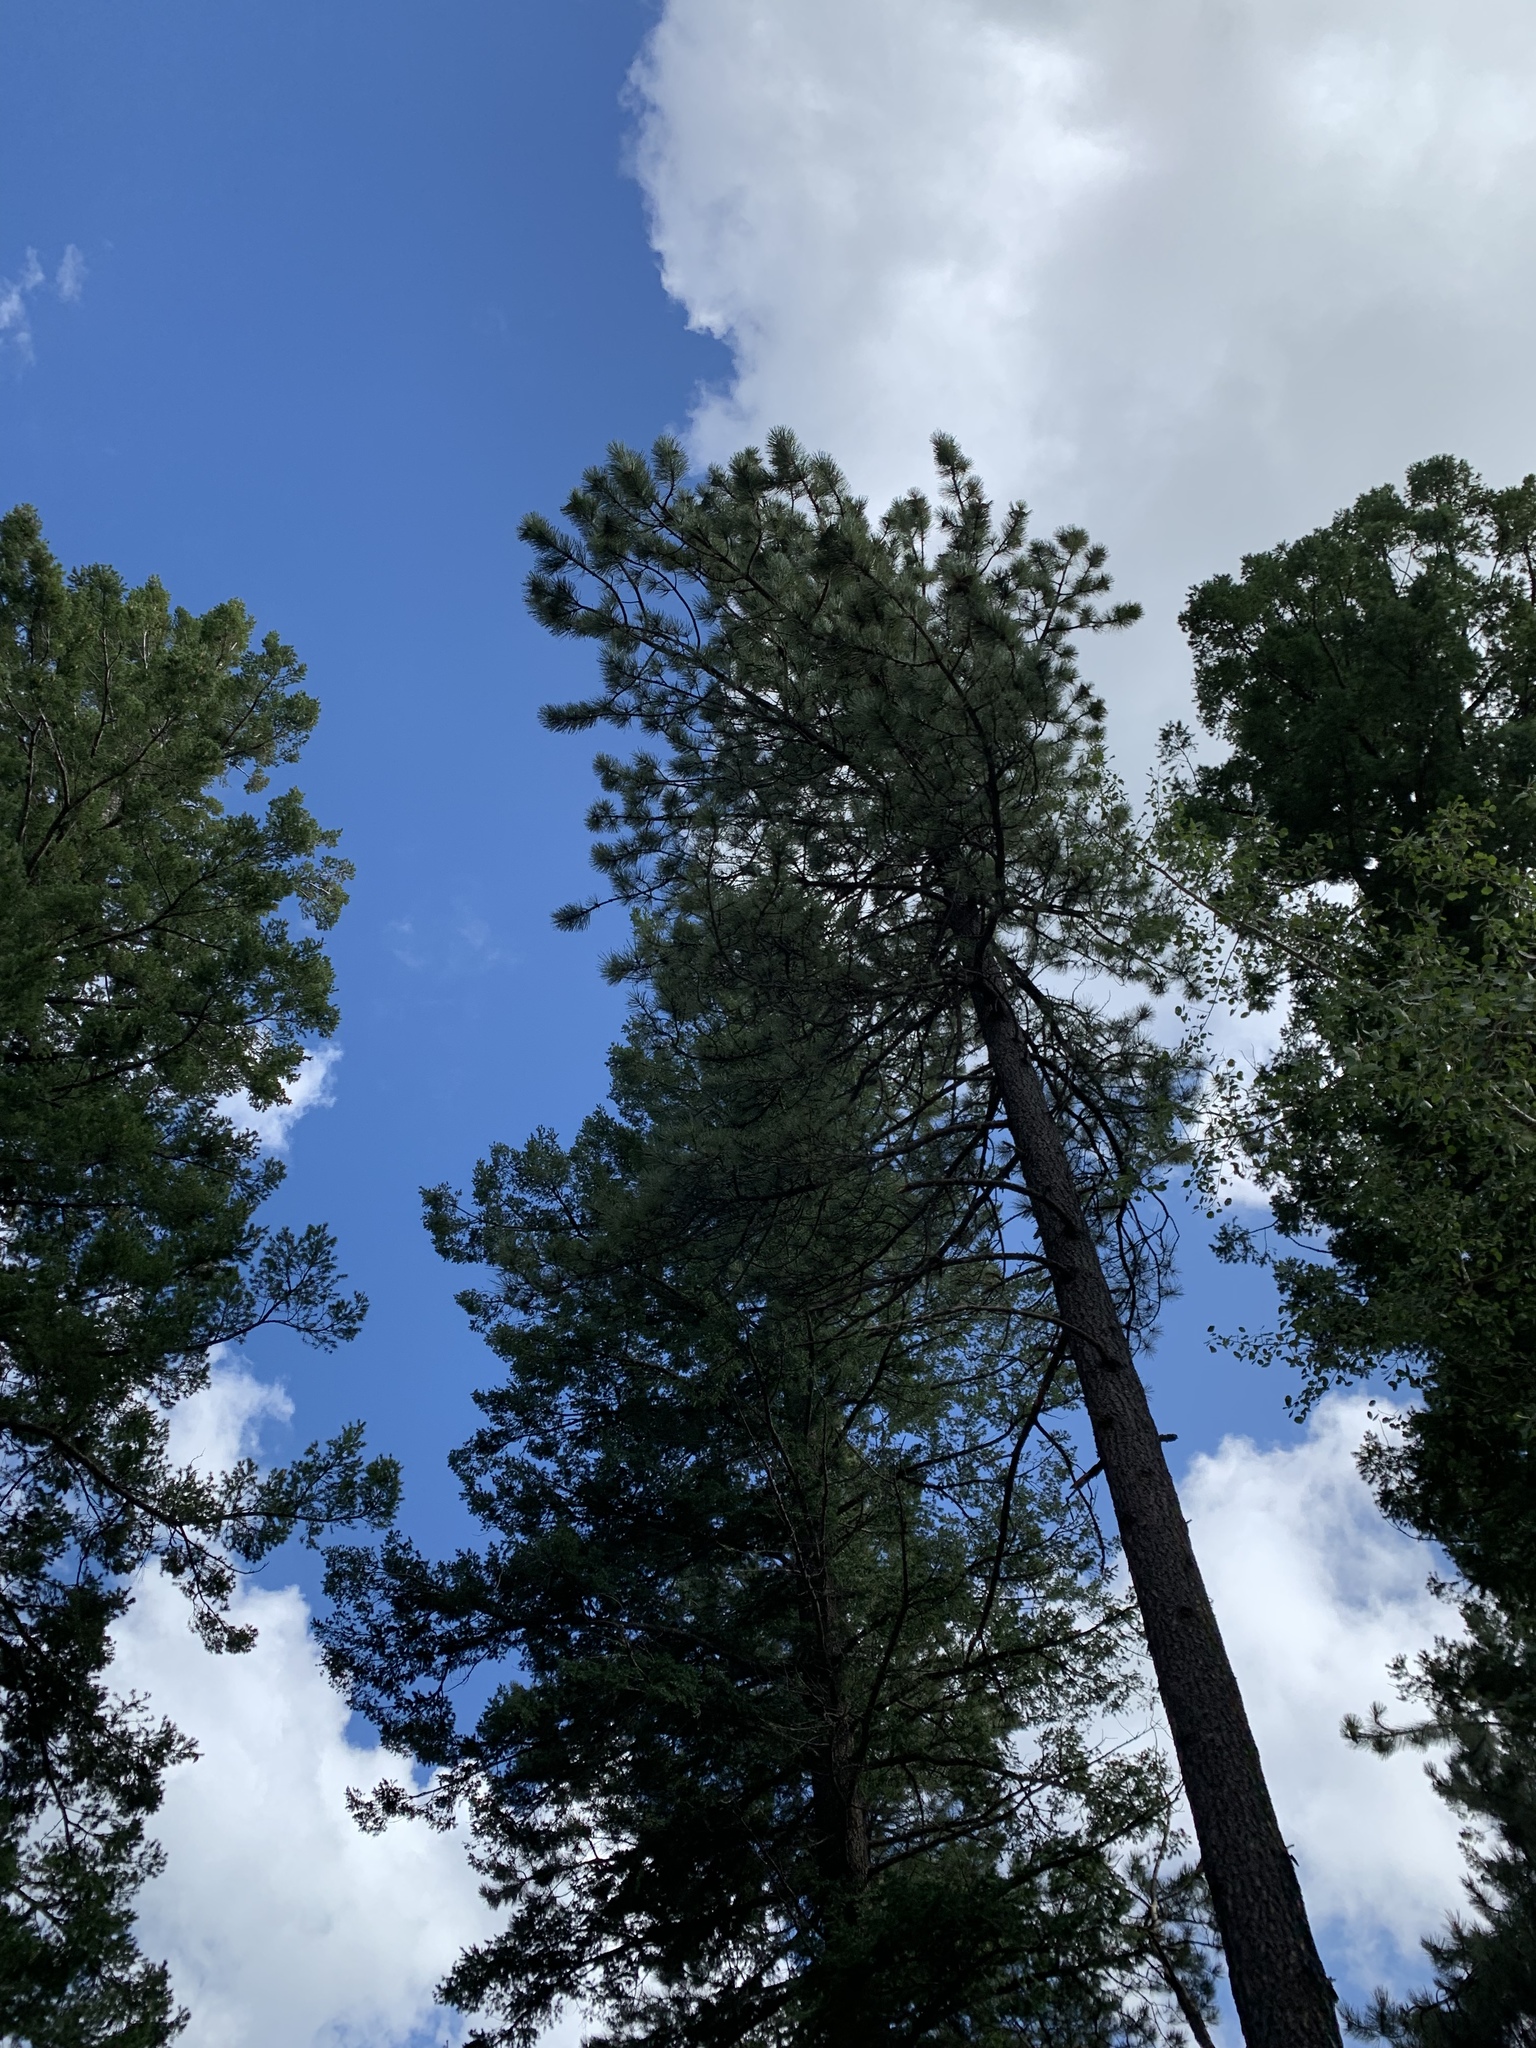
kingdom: Plantae
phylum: Tracheophyta
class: Pinopsida
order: Pinales
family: Pinaceae
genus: Pinus
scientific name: Pinus ponderosa
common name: Western yellow-pine
